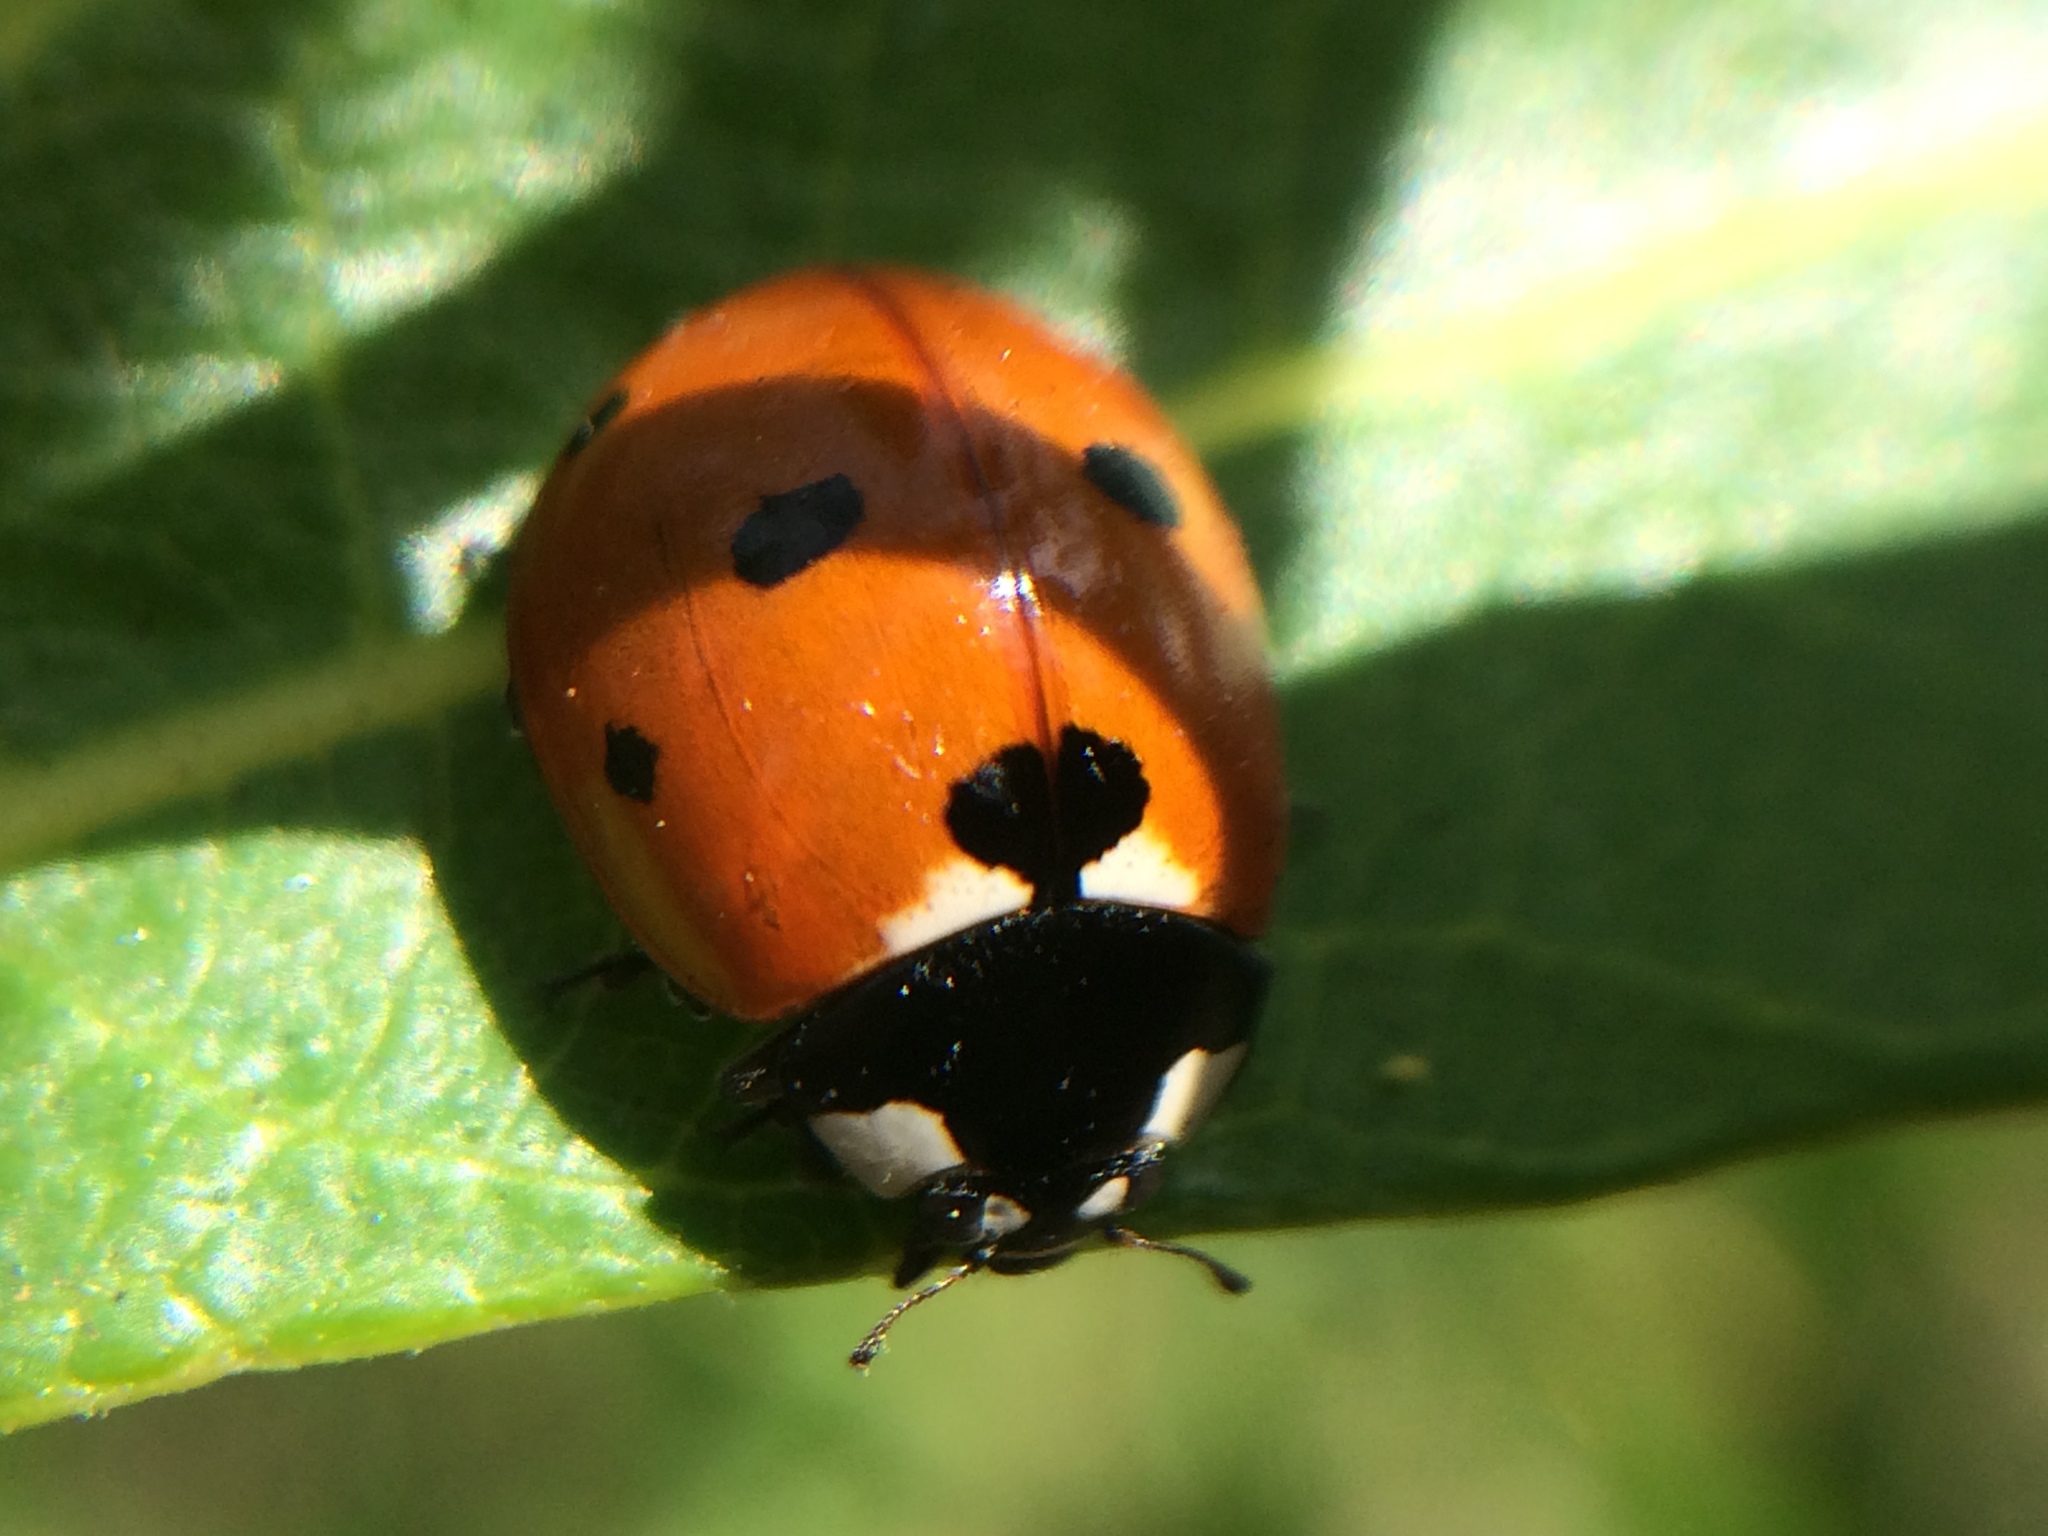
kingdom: Animalia
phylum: Arthropoda
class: Insecta
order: Coleoptera
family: Coccinellidae
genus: Coccinella
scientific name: Coccinella septempunctata
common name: Sevenspotted lady beetle
